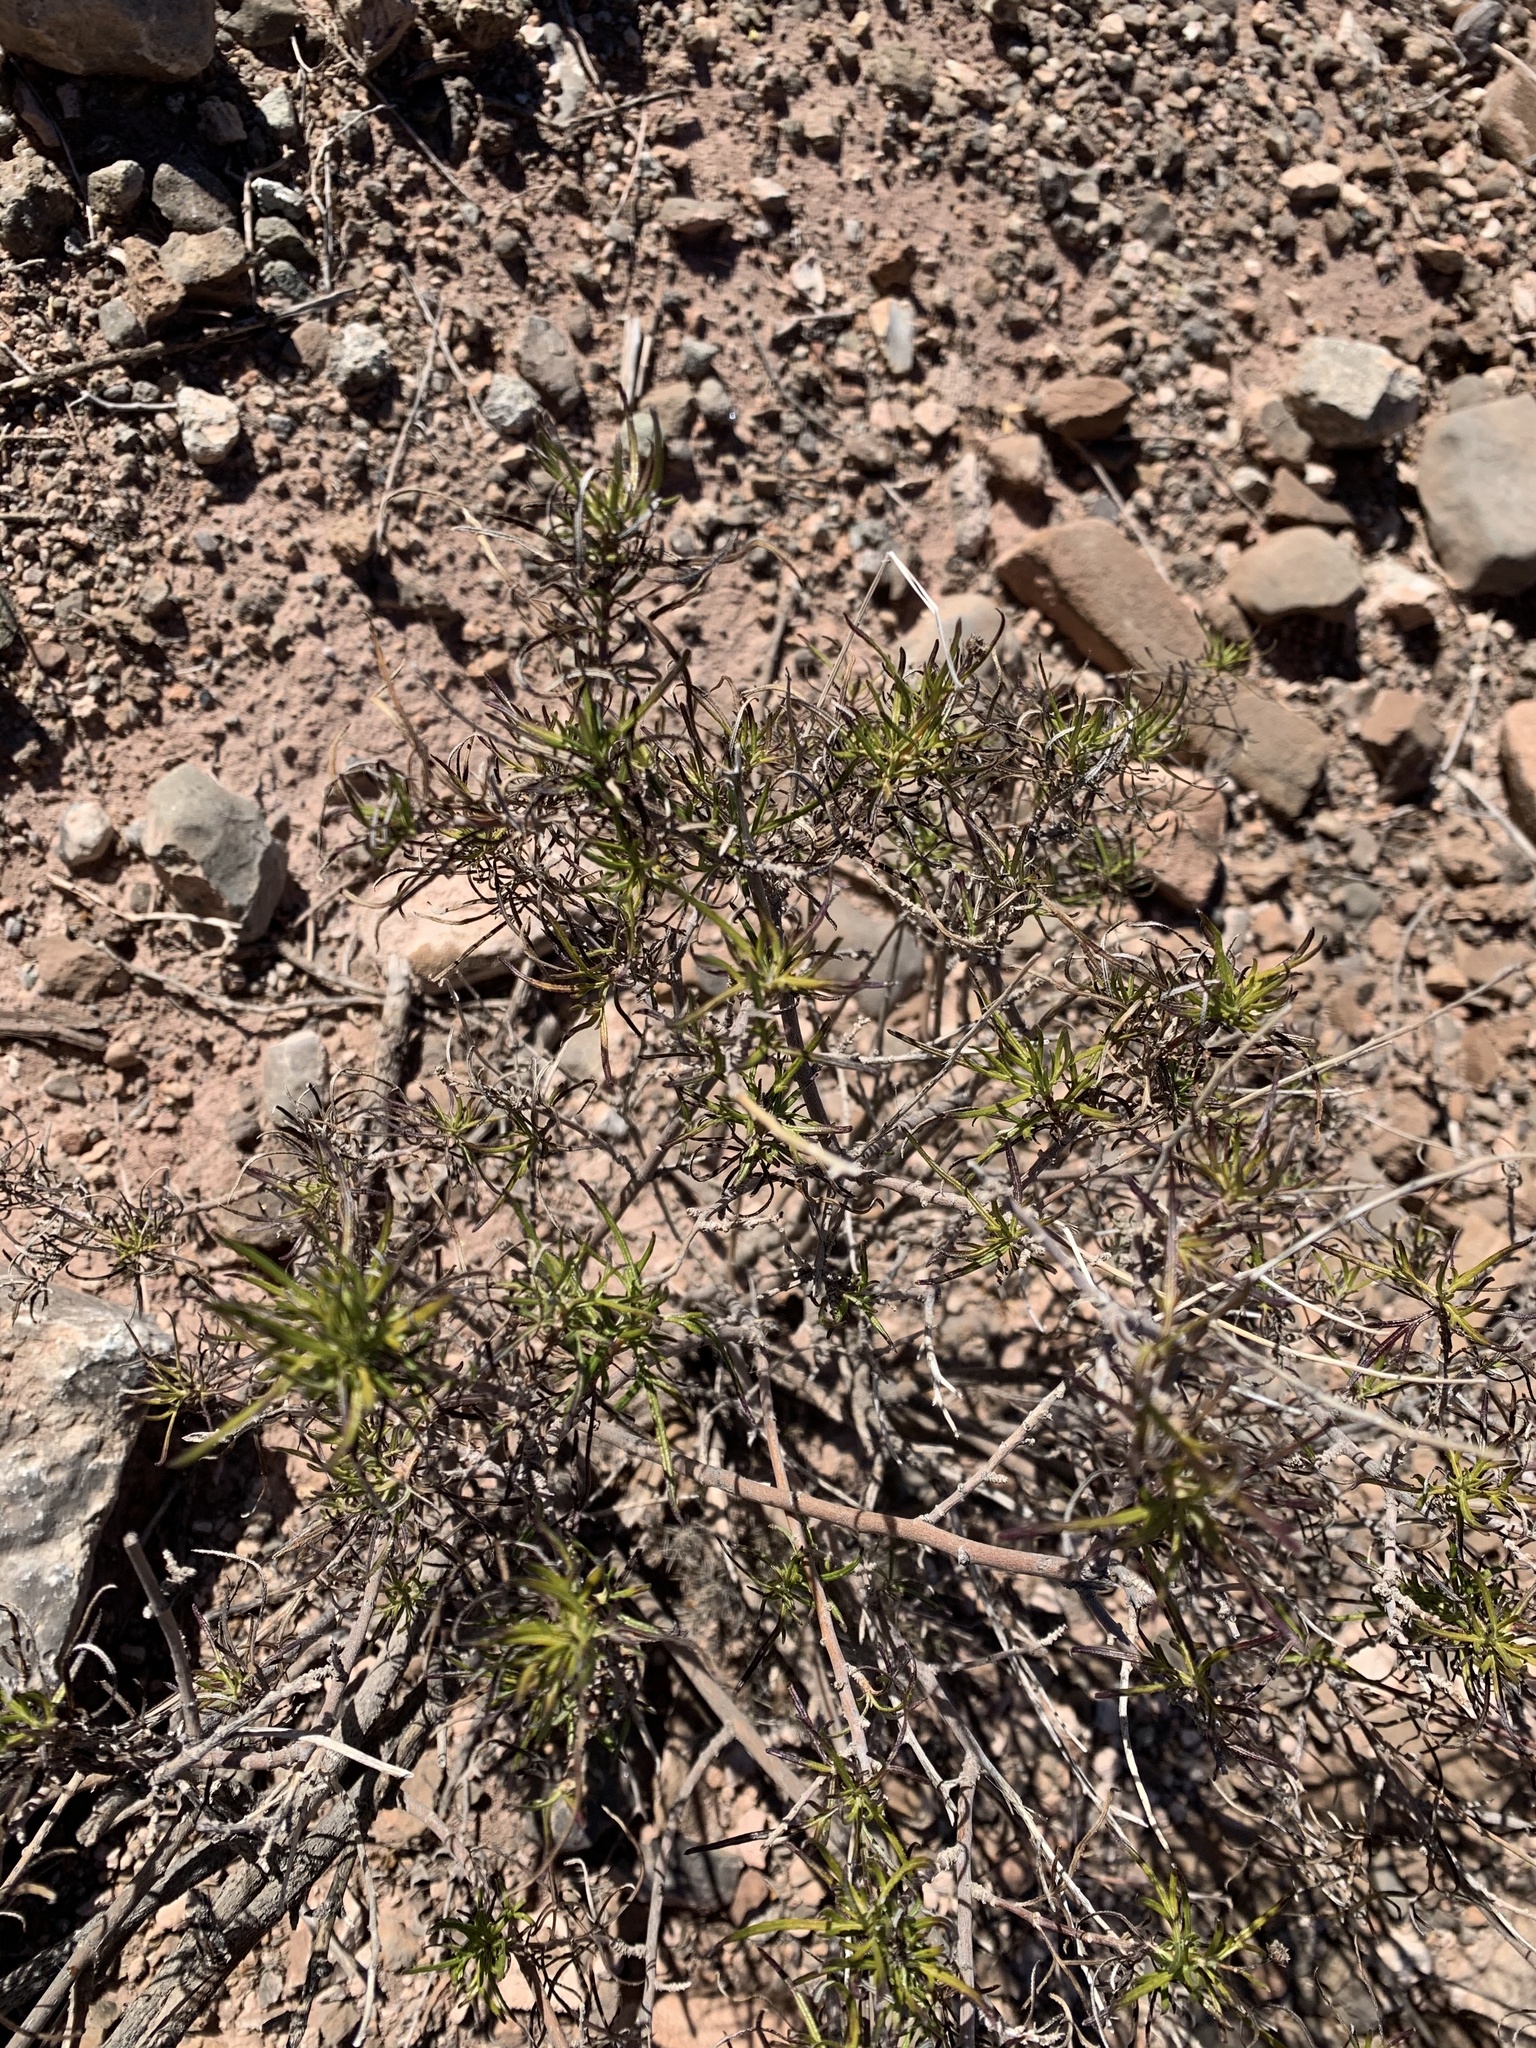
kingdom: Plantae
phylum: Tracheophyta
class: Magnoliopsida
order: Asterales
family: Asteraceae
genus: Sidneya
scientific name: Sidneya tenuifolia
